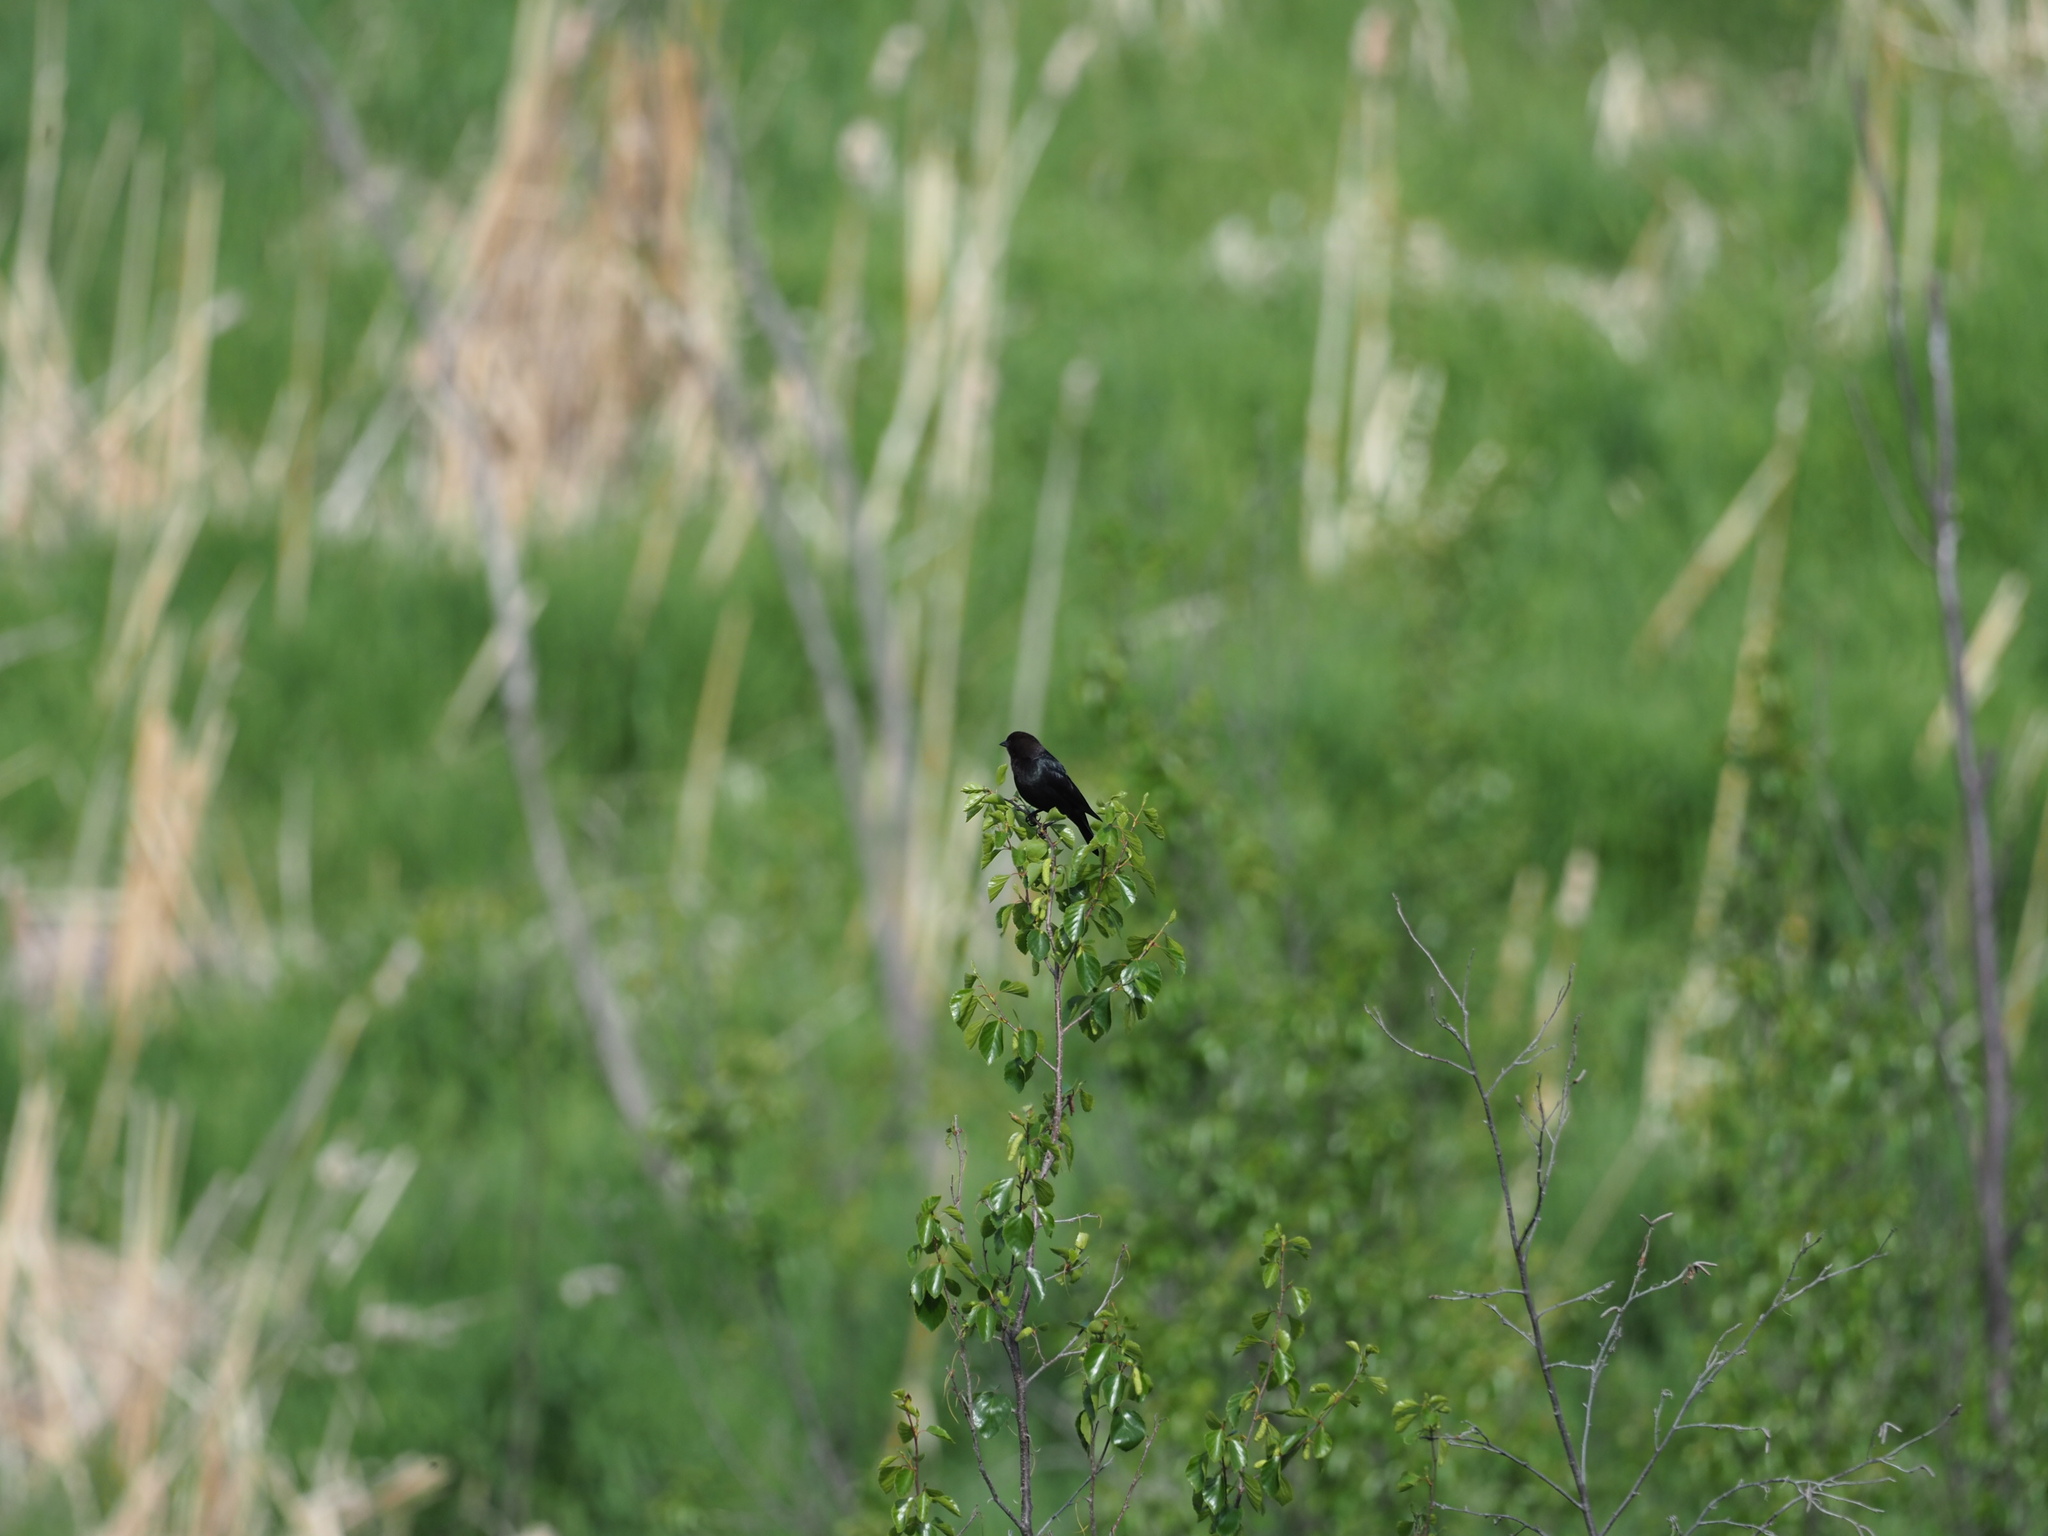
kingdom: Animalia
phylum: Chordata
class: Aves
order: Passeriformes
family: Icteridae
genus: Molothrus
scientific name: Molothrus ater
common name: Brown-headed cowbird
